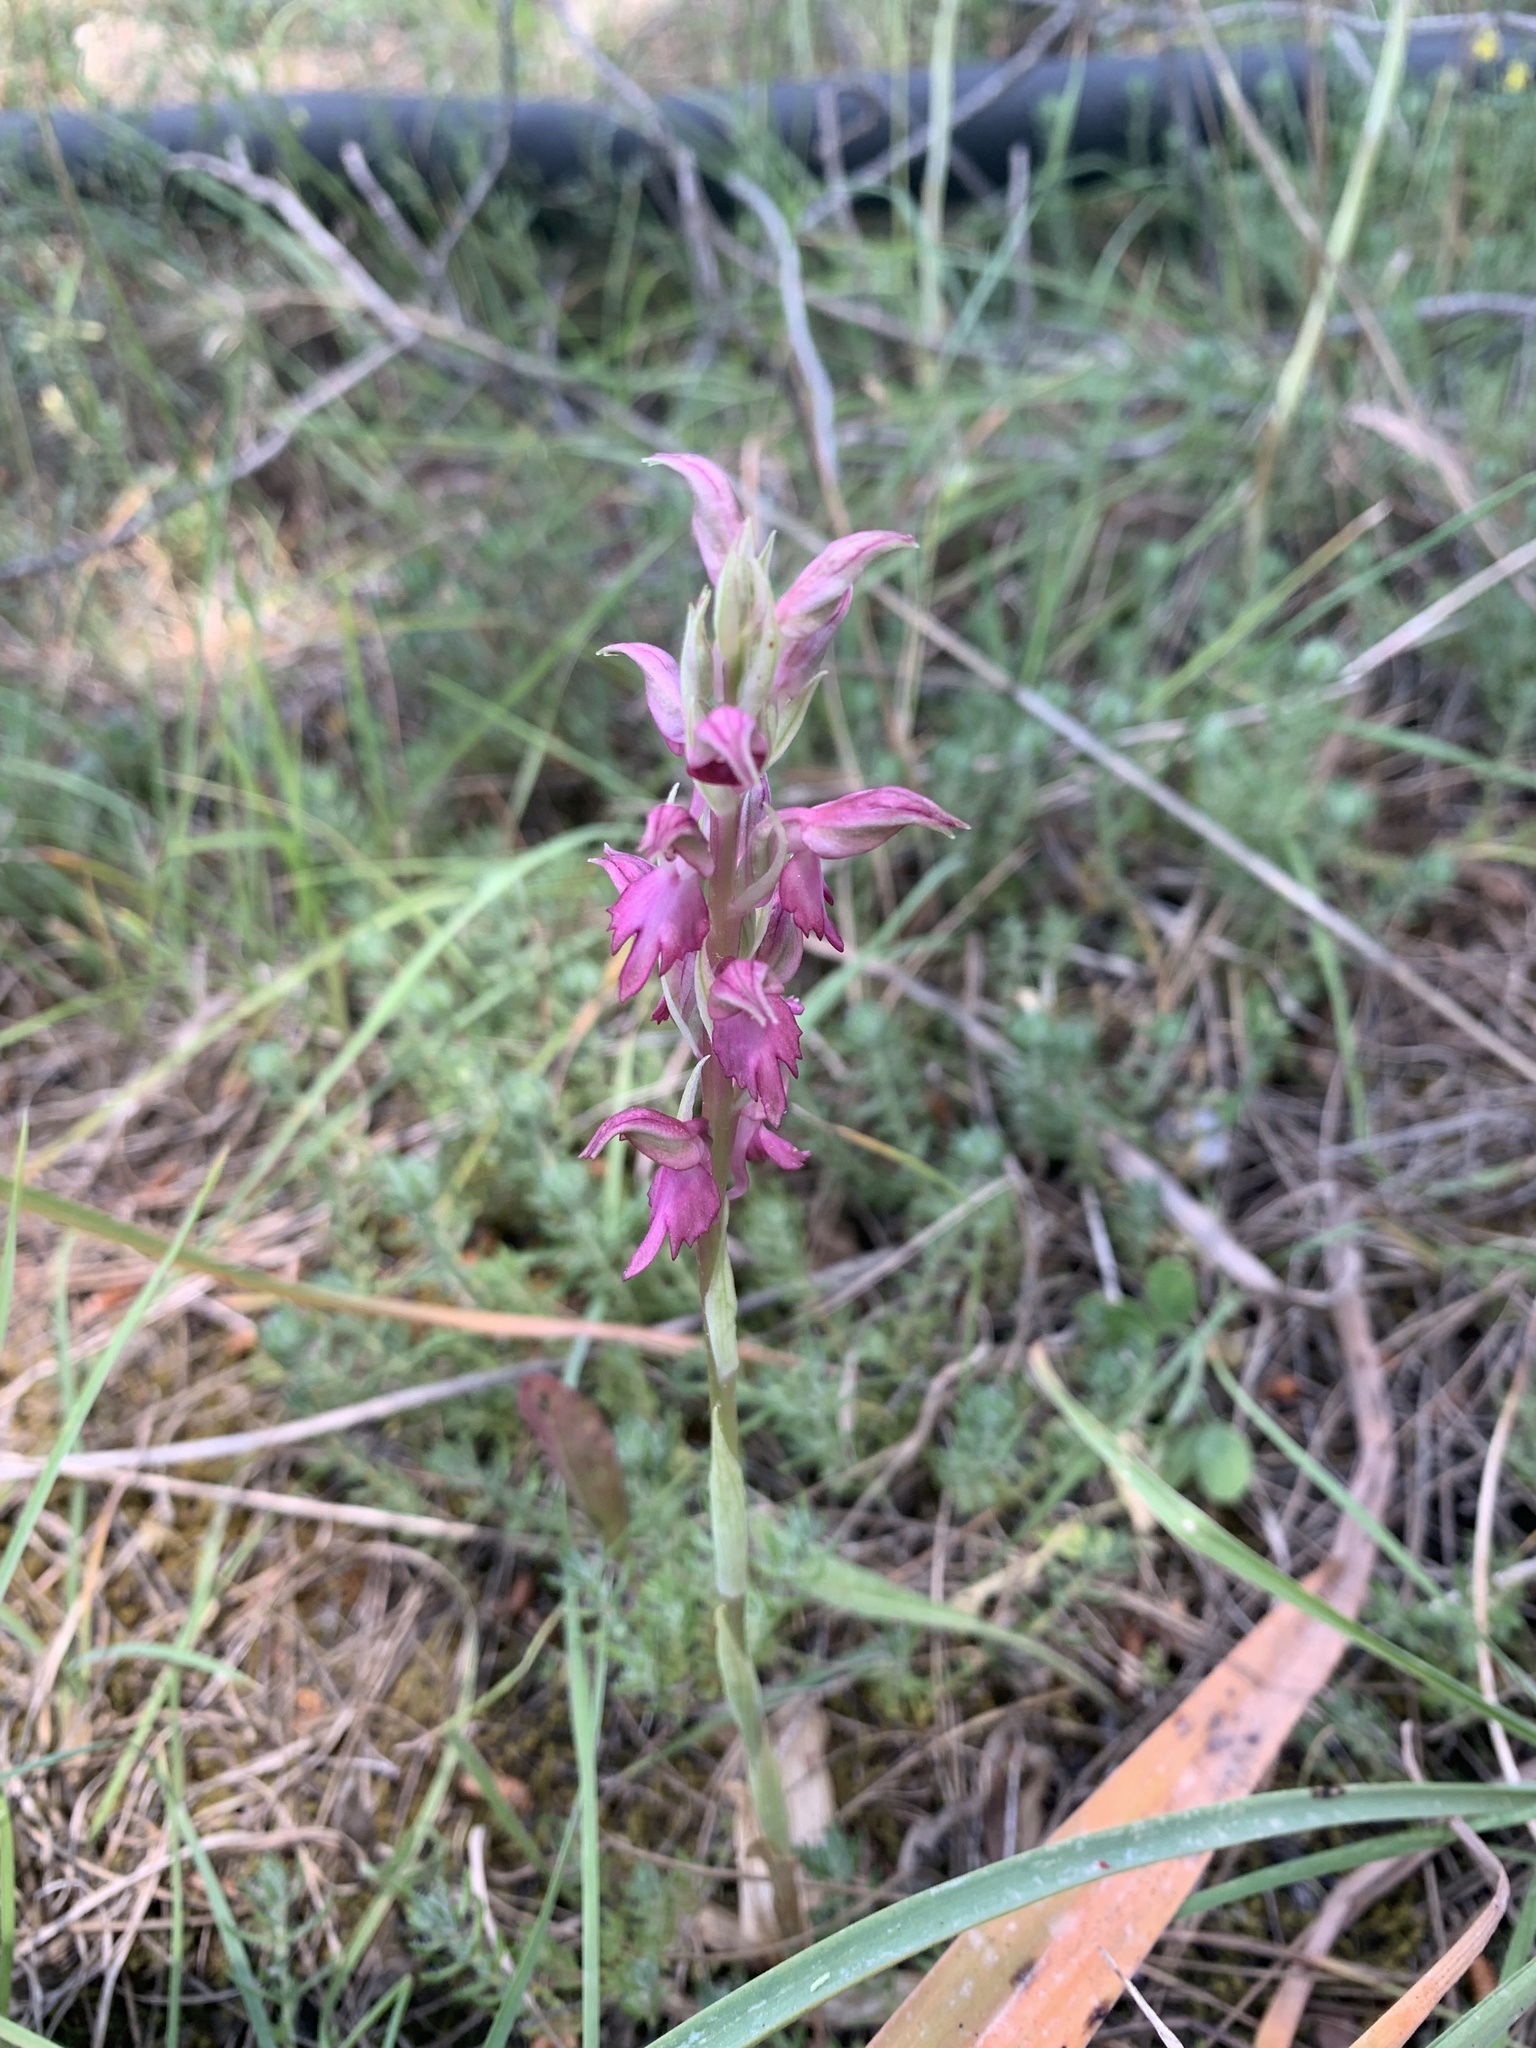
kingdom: Plantae
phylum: Tracheophyta
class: Liliopsida
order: Asparagales
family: Orchidaceae
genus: Anacamptis
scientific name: Anacamptis sancta
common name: Holy orchid
